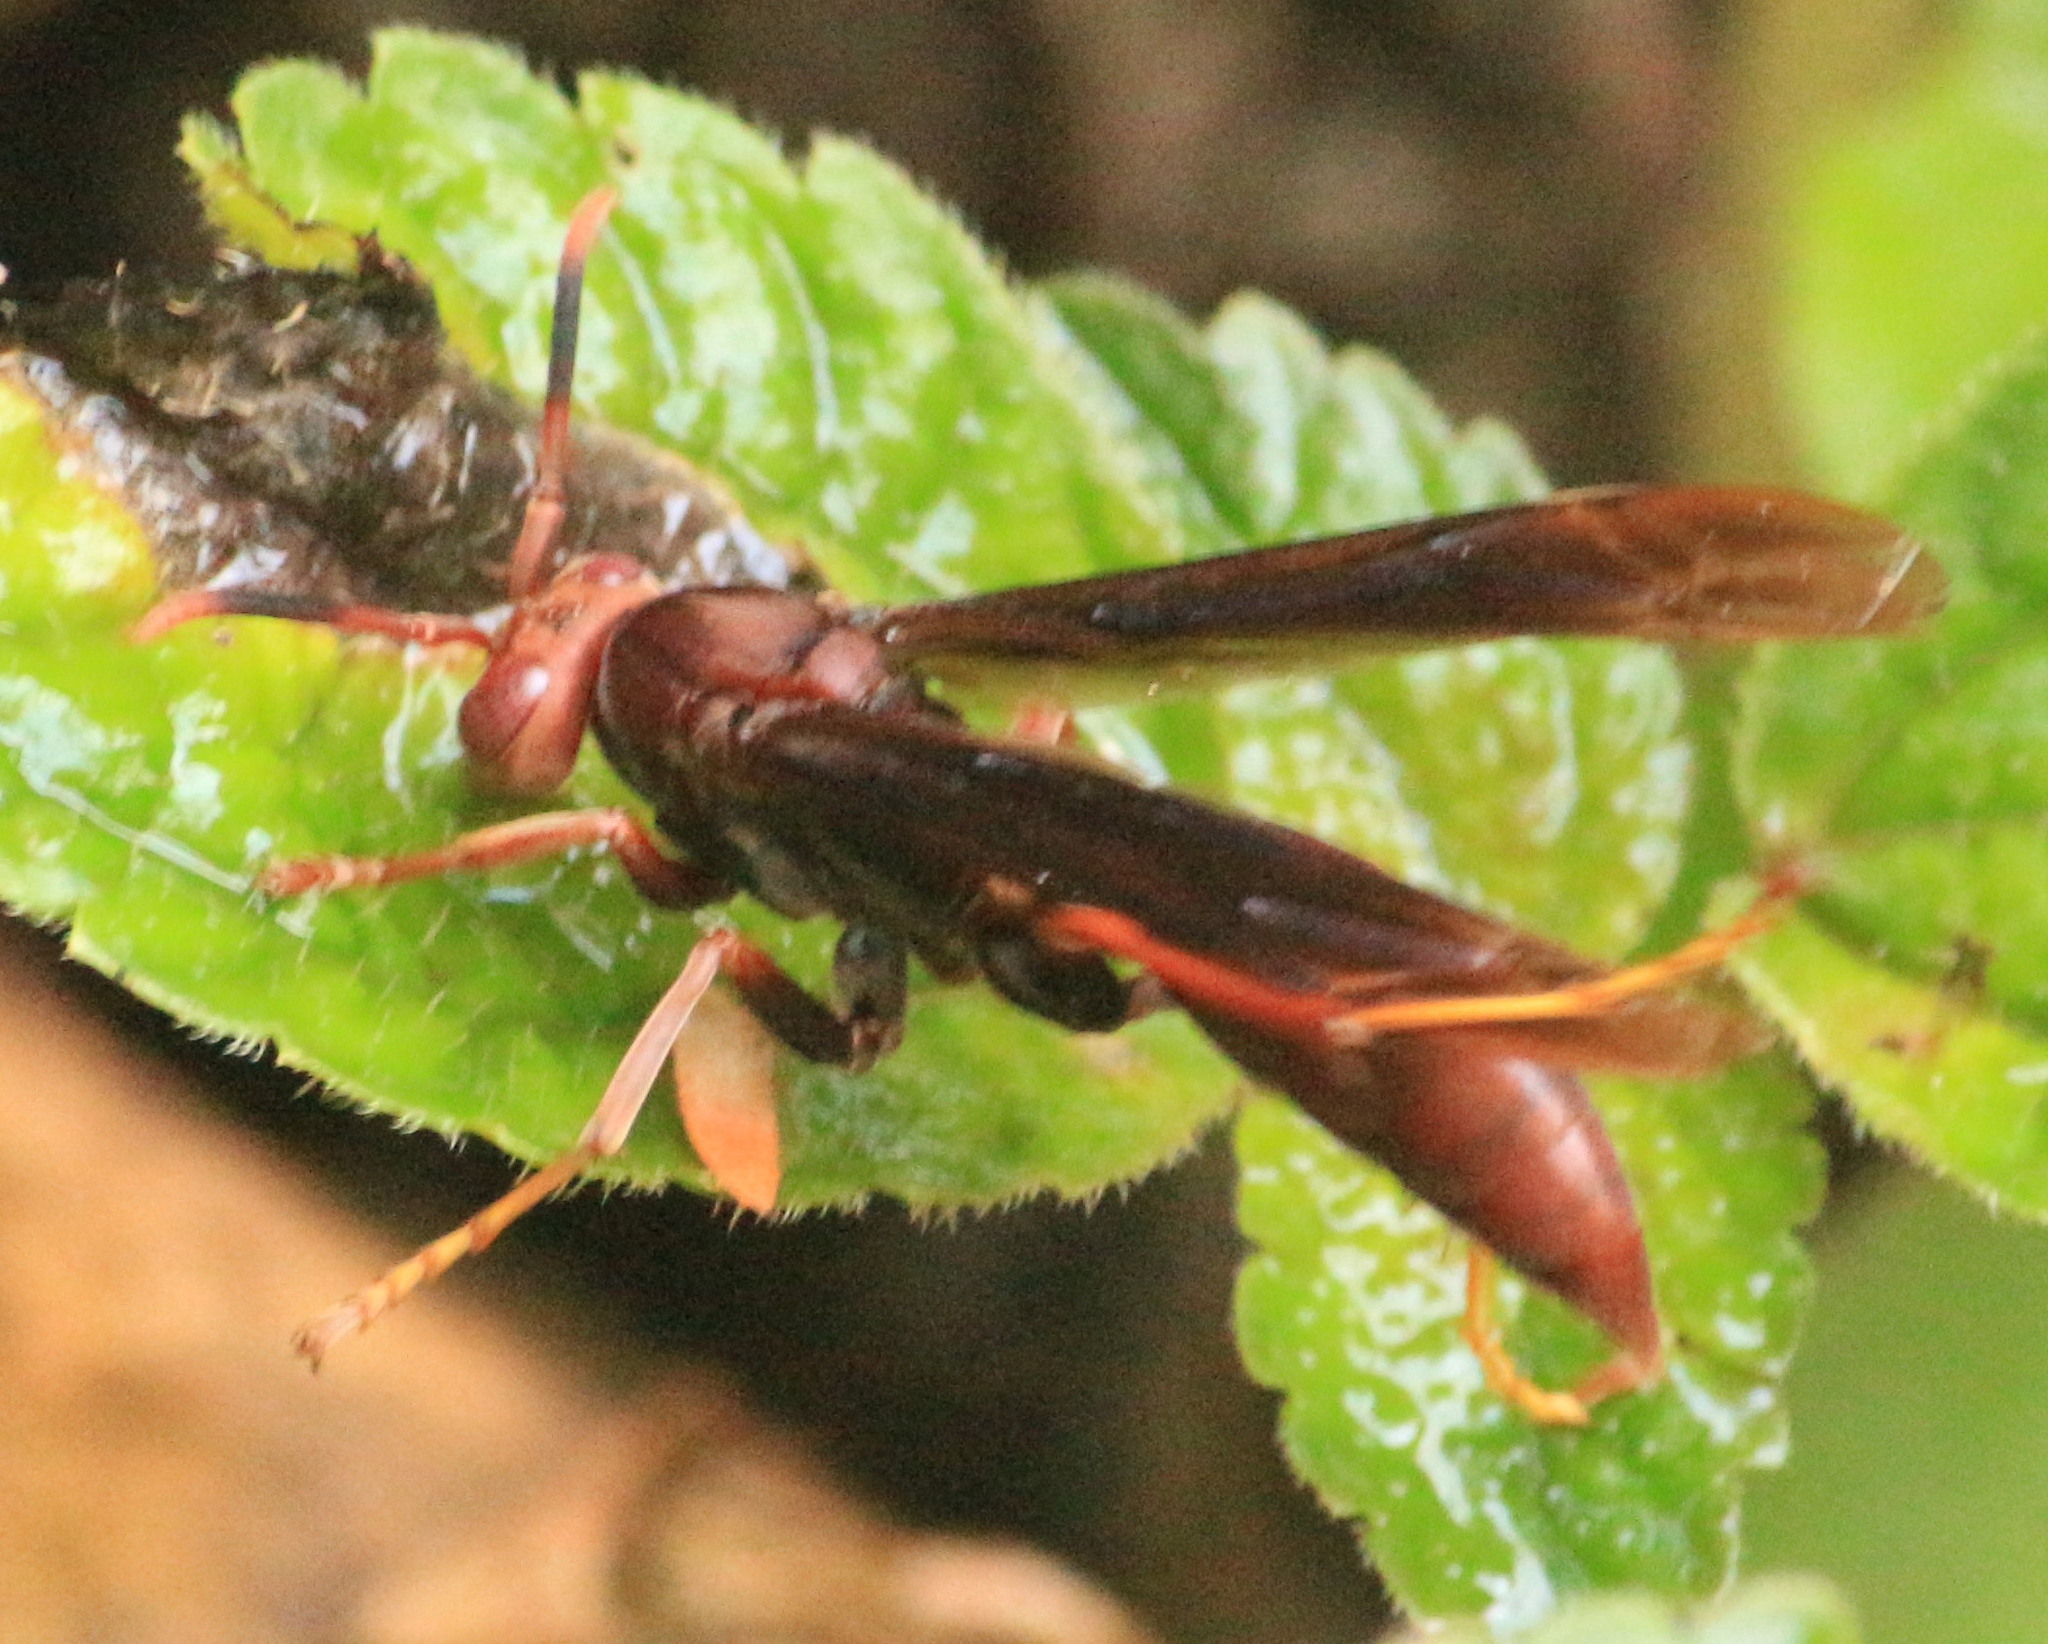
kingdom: Animalia
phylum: Arthropoda
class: Insecta
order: Hymenoptera
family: Eumenidae
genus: Polistes
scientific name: Polistes canadensis
